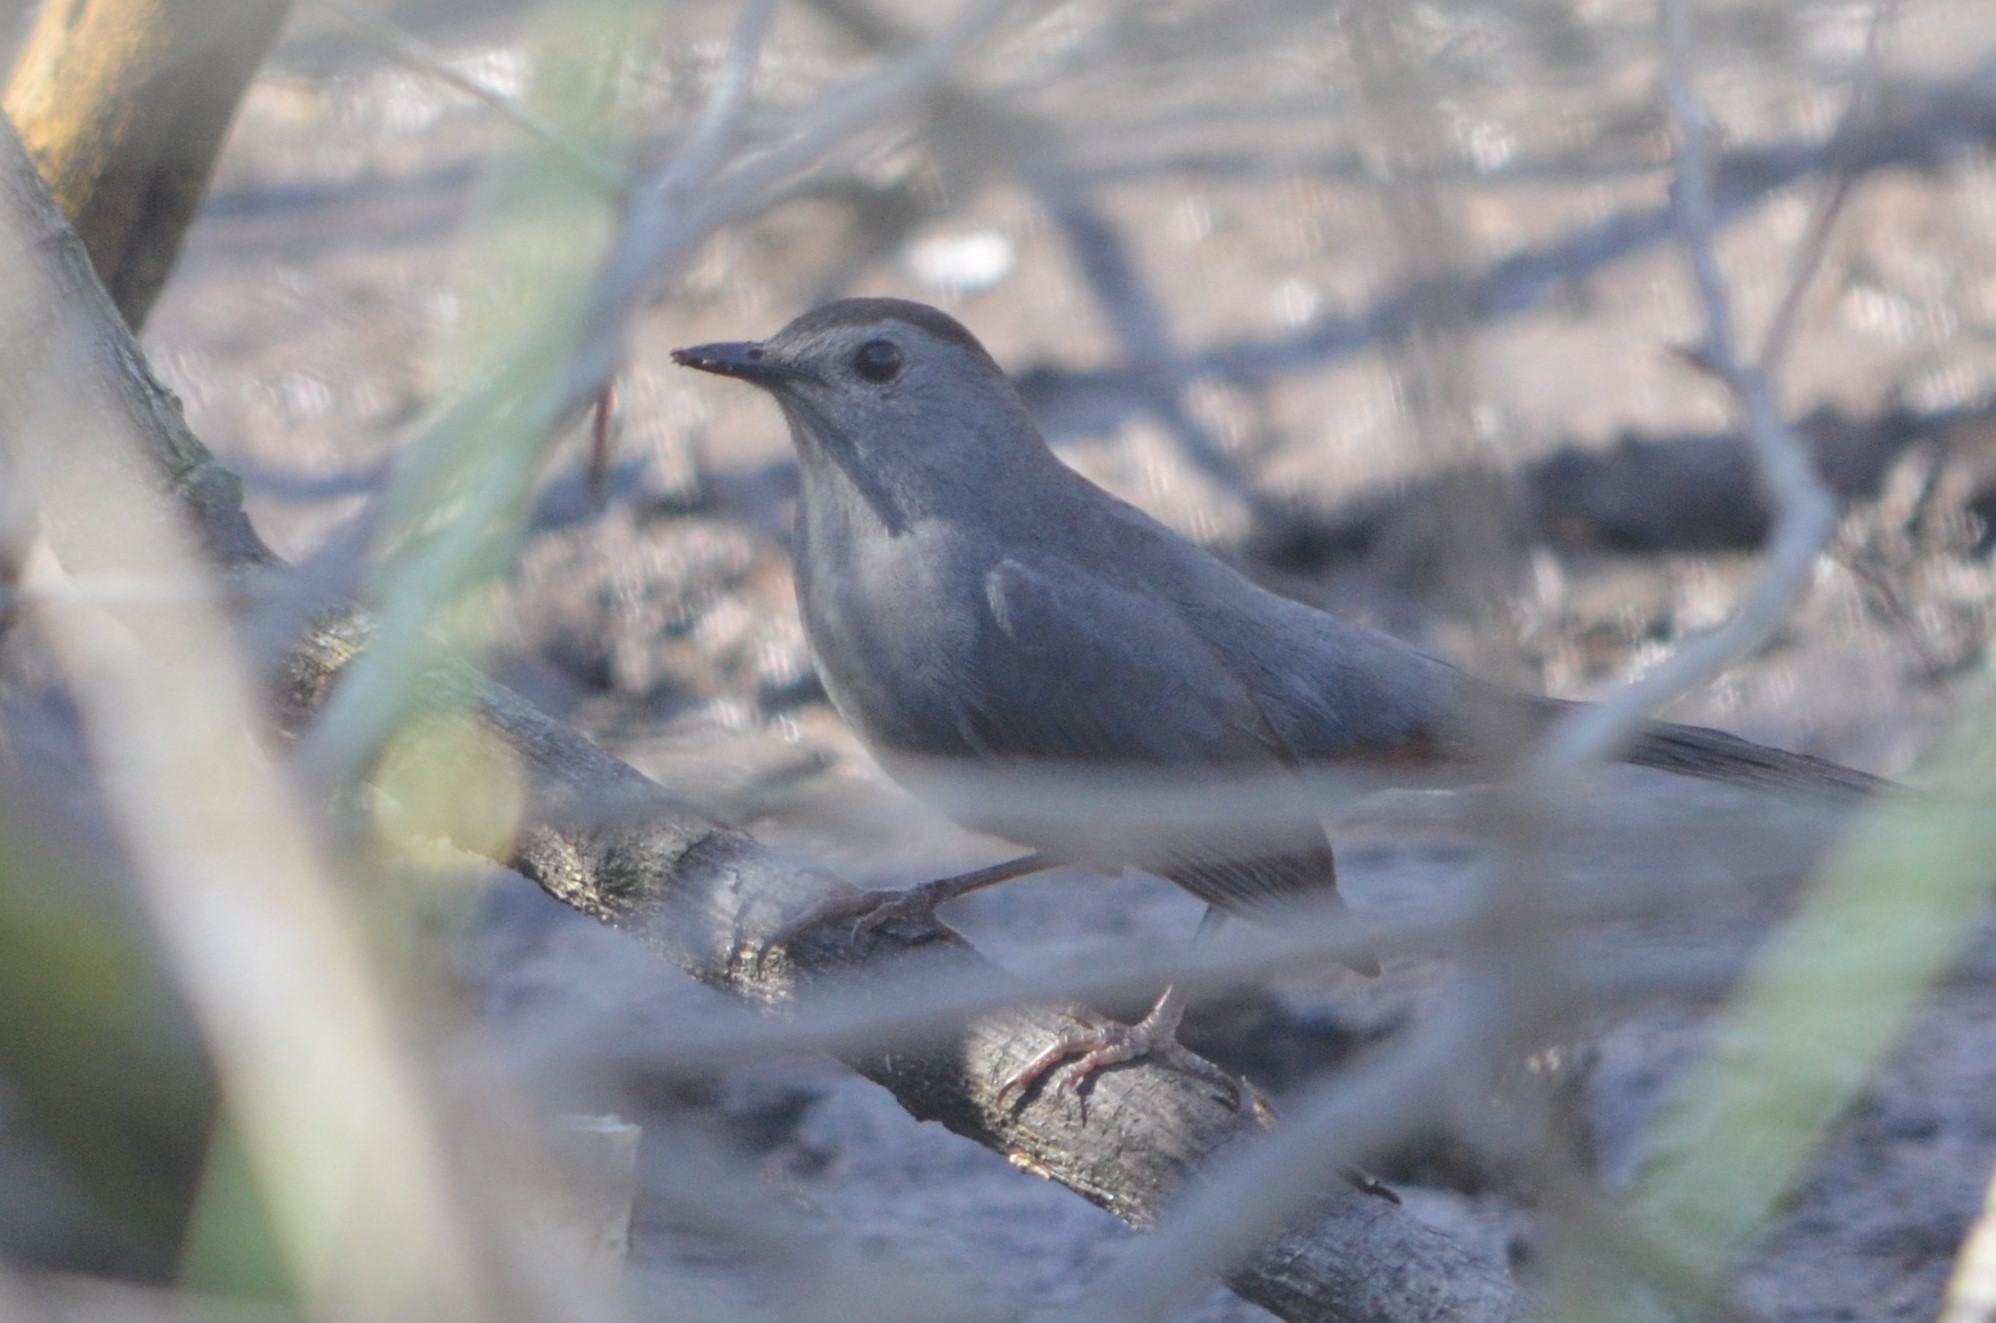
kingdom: Animalia
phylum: Chordata
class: Aves
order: Passeriformes
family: Mimidae
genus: Dumetella
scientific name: Dumetella carolinensis
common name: Gray catbird
